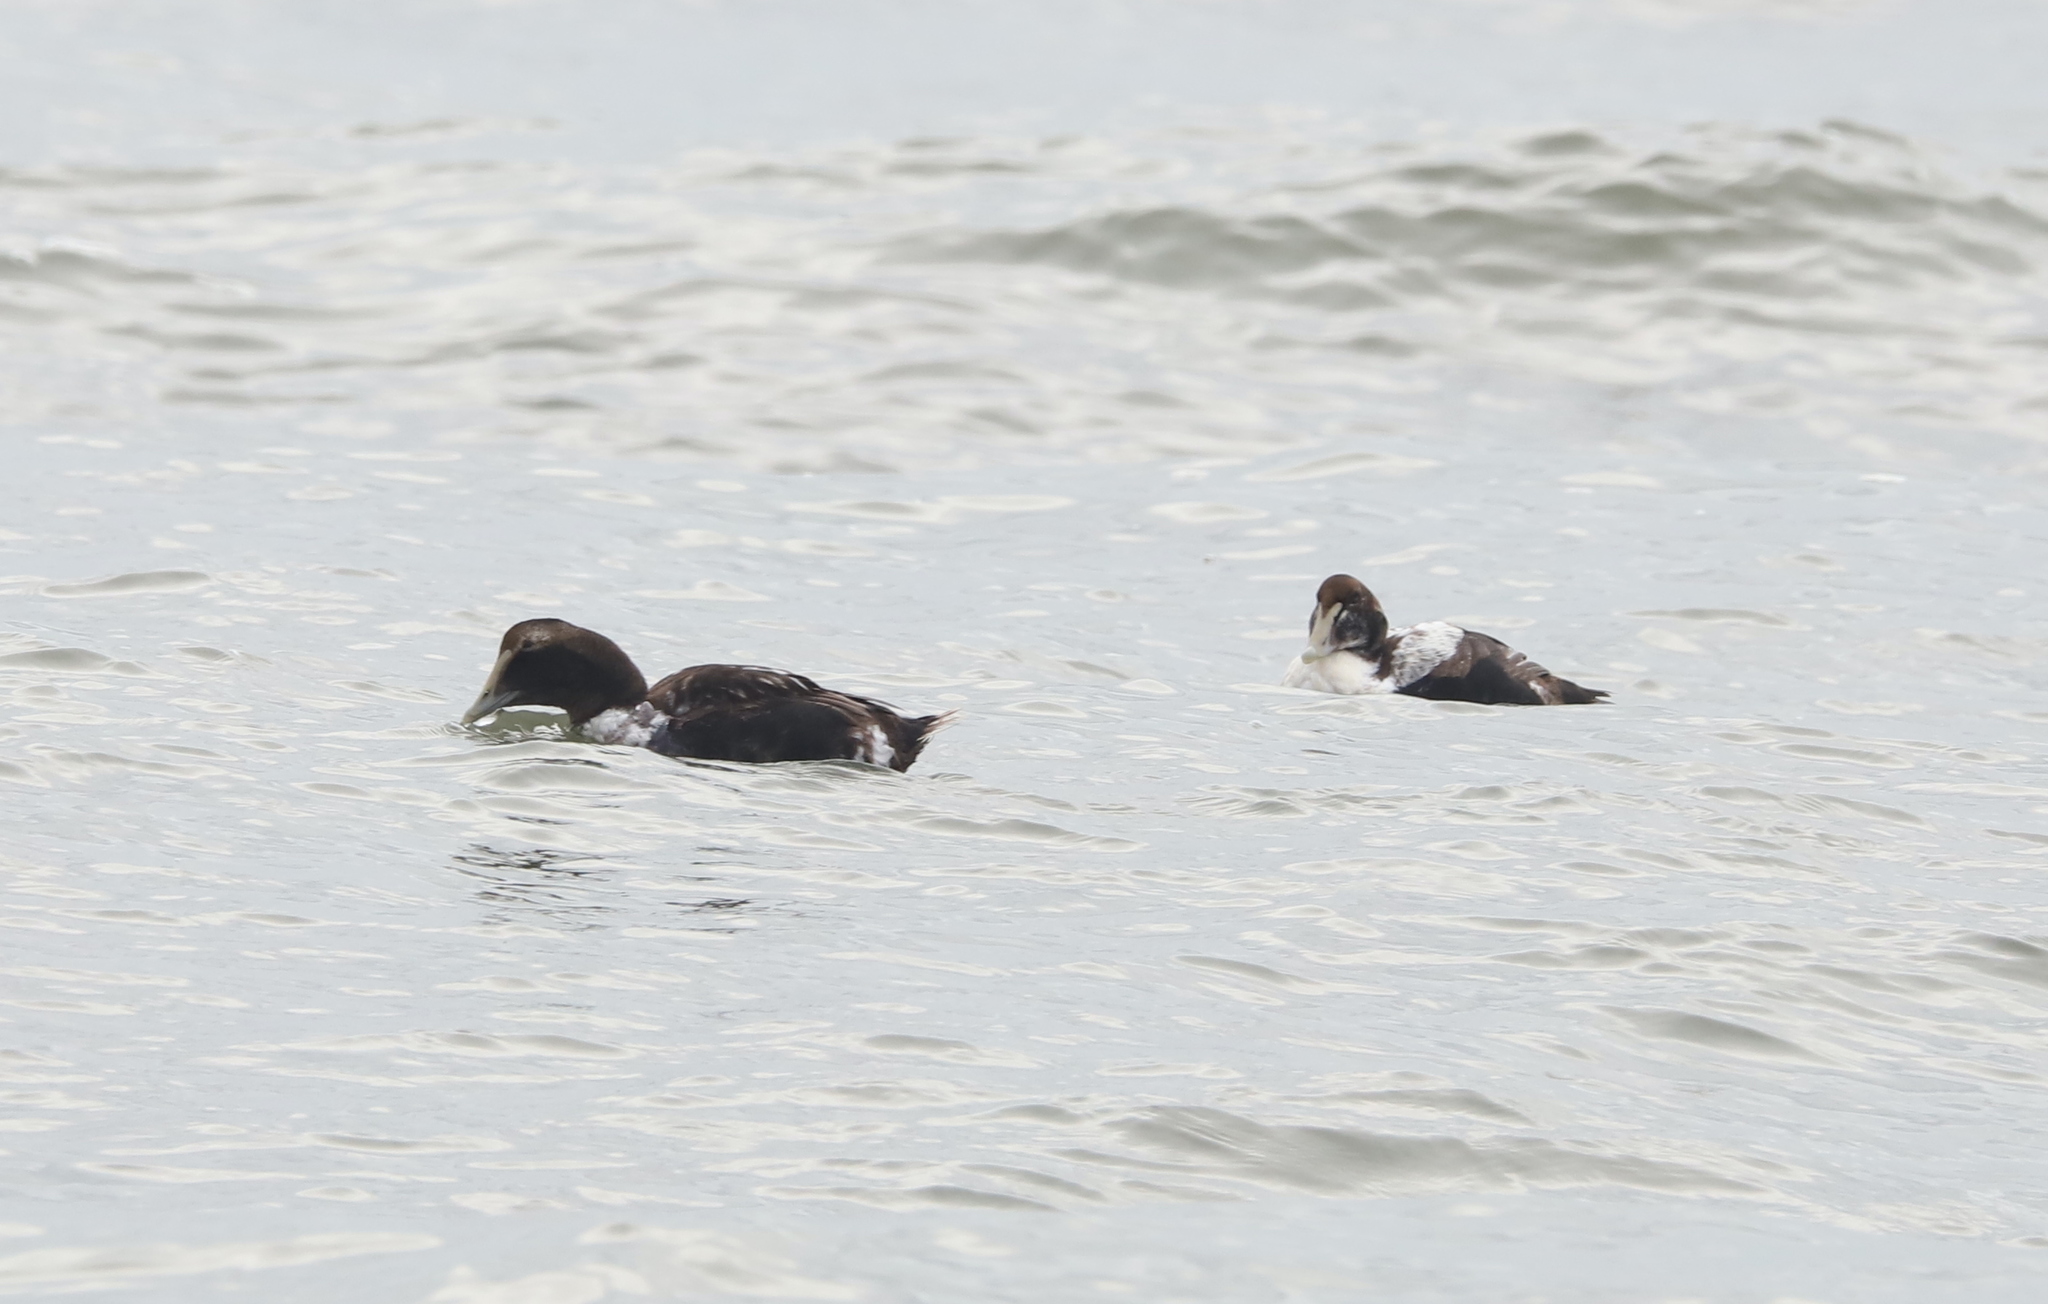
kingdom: Animalia
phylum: Chordata
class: Aves
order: Anseriformes
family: Anatidae
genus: Somateria
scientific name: Somateria mollissima
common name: Common eider
